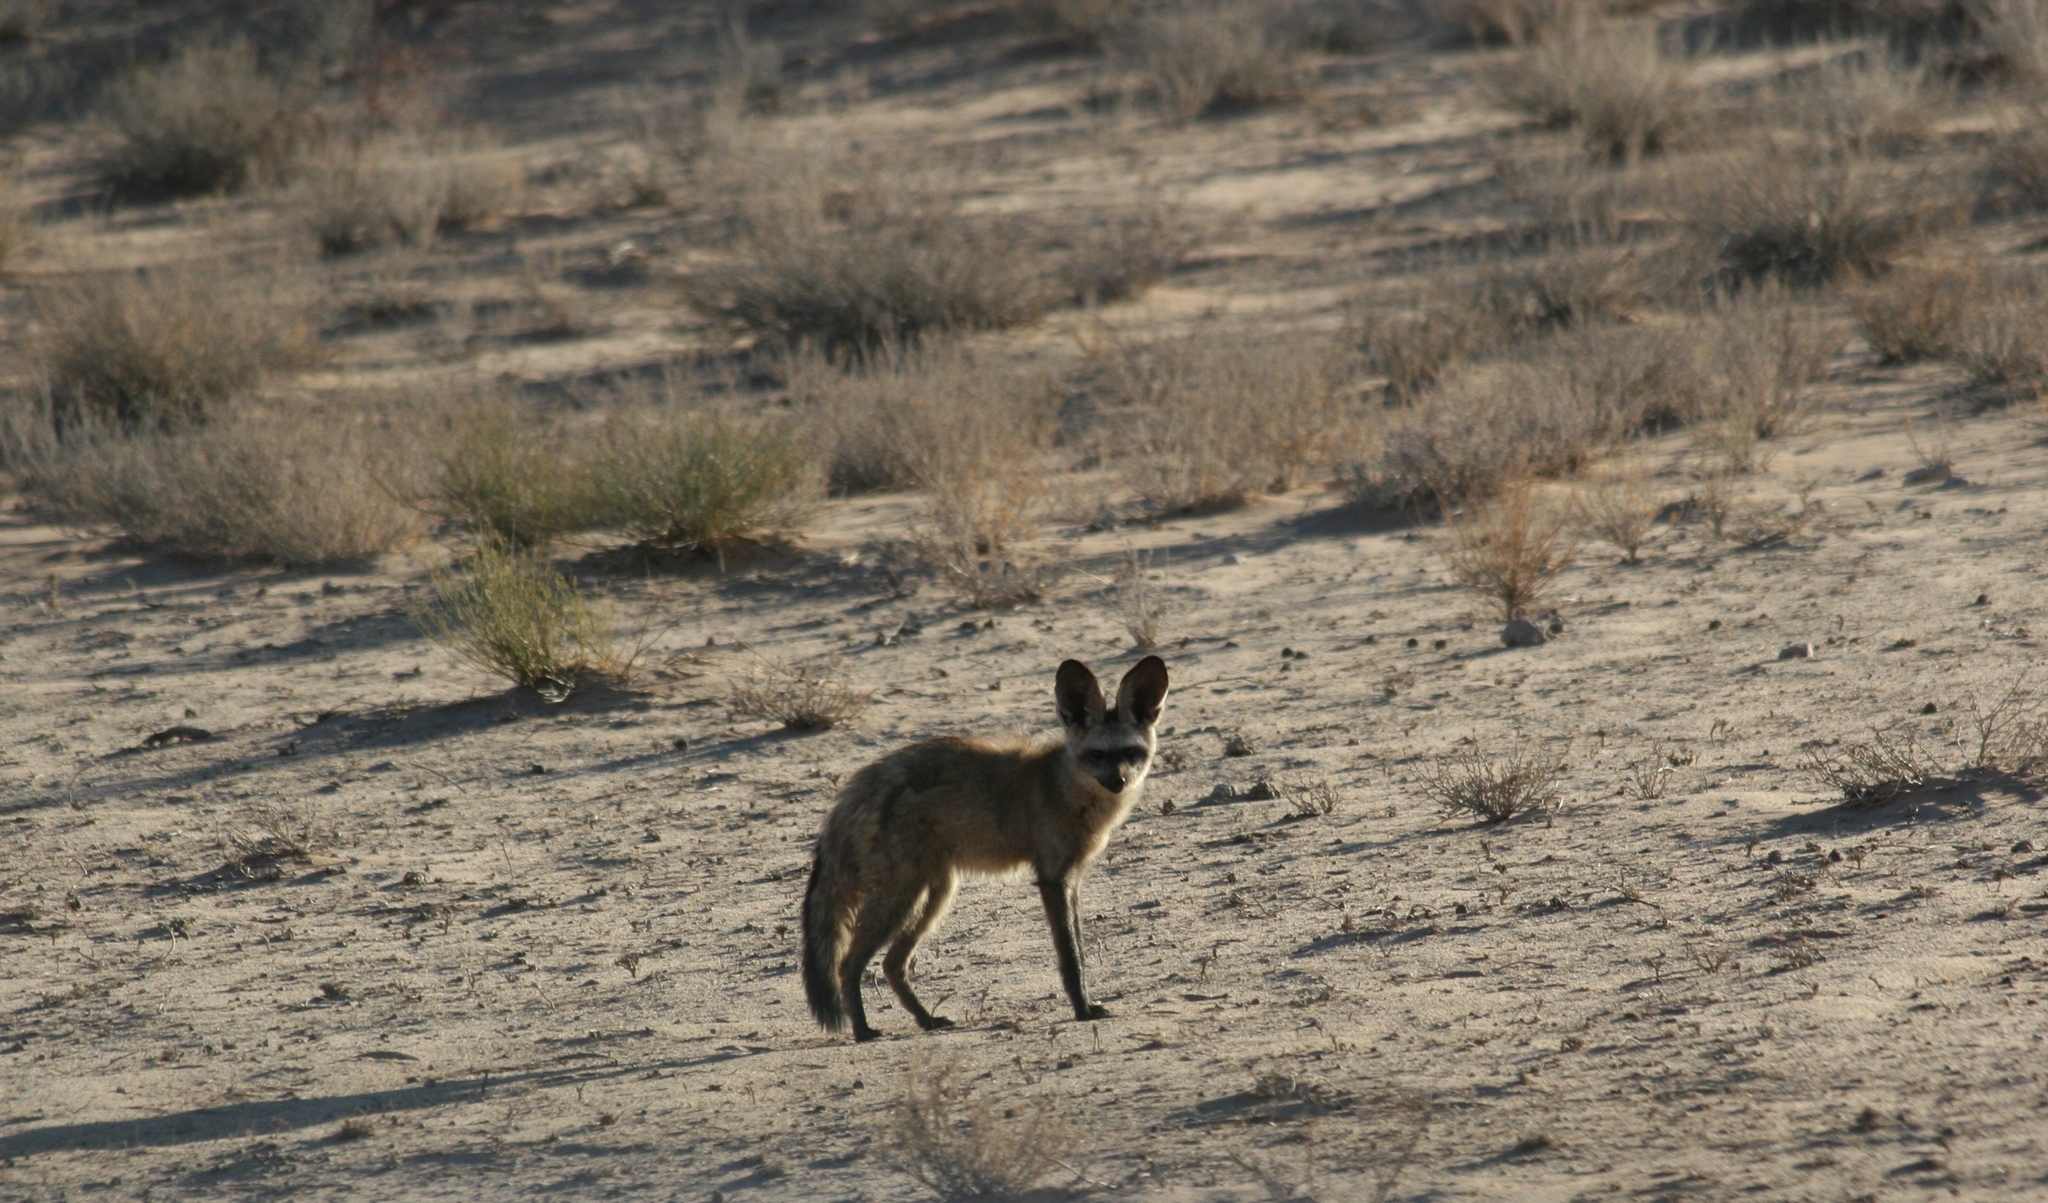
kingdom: Animalia
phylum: Chordata
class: Mammalia
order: Carnivora
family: Canidae
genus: Otocyon
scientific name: Otocyon megalotis
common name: Bat-eared fox
